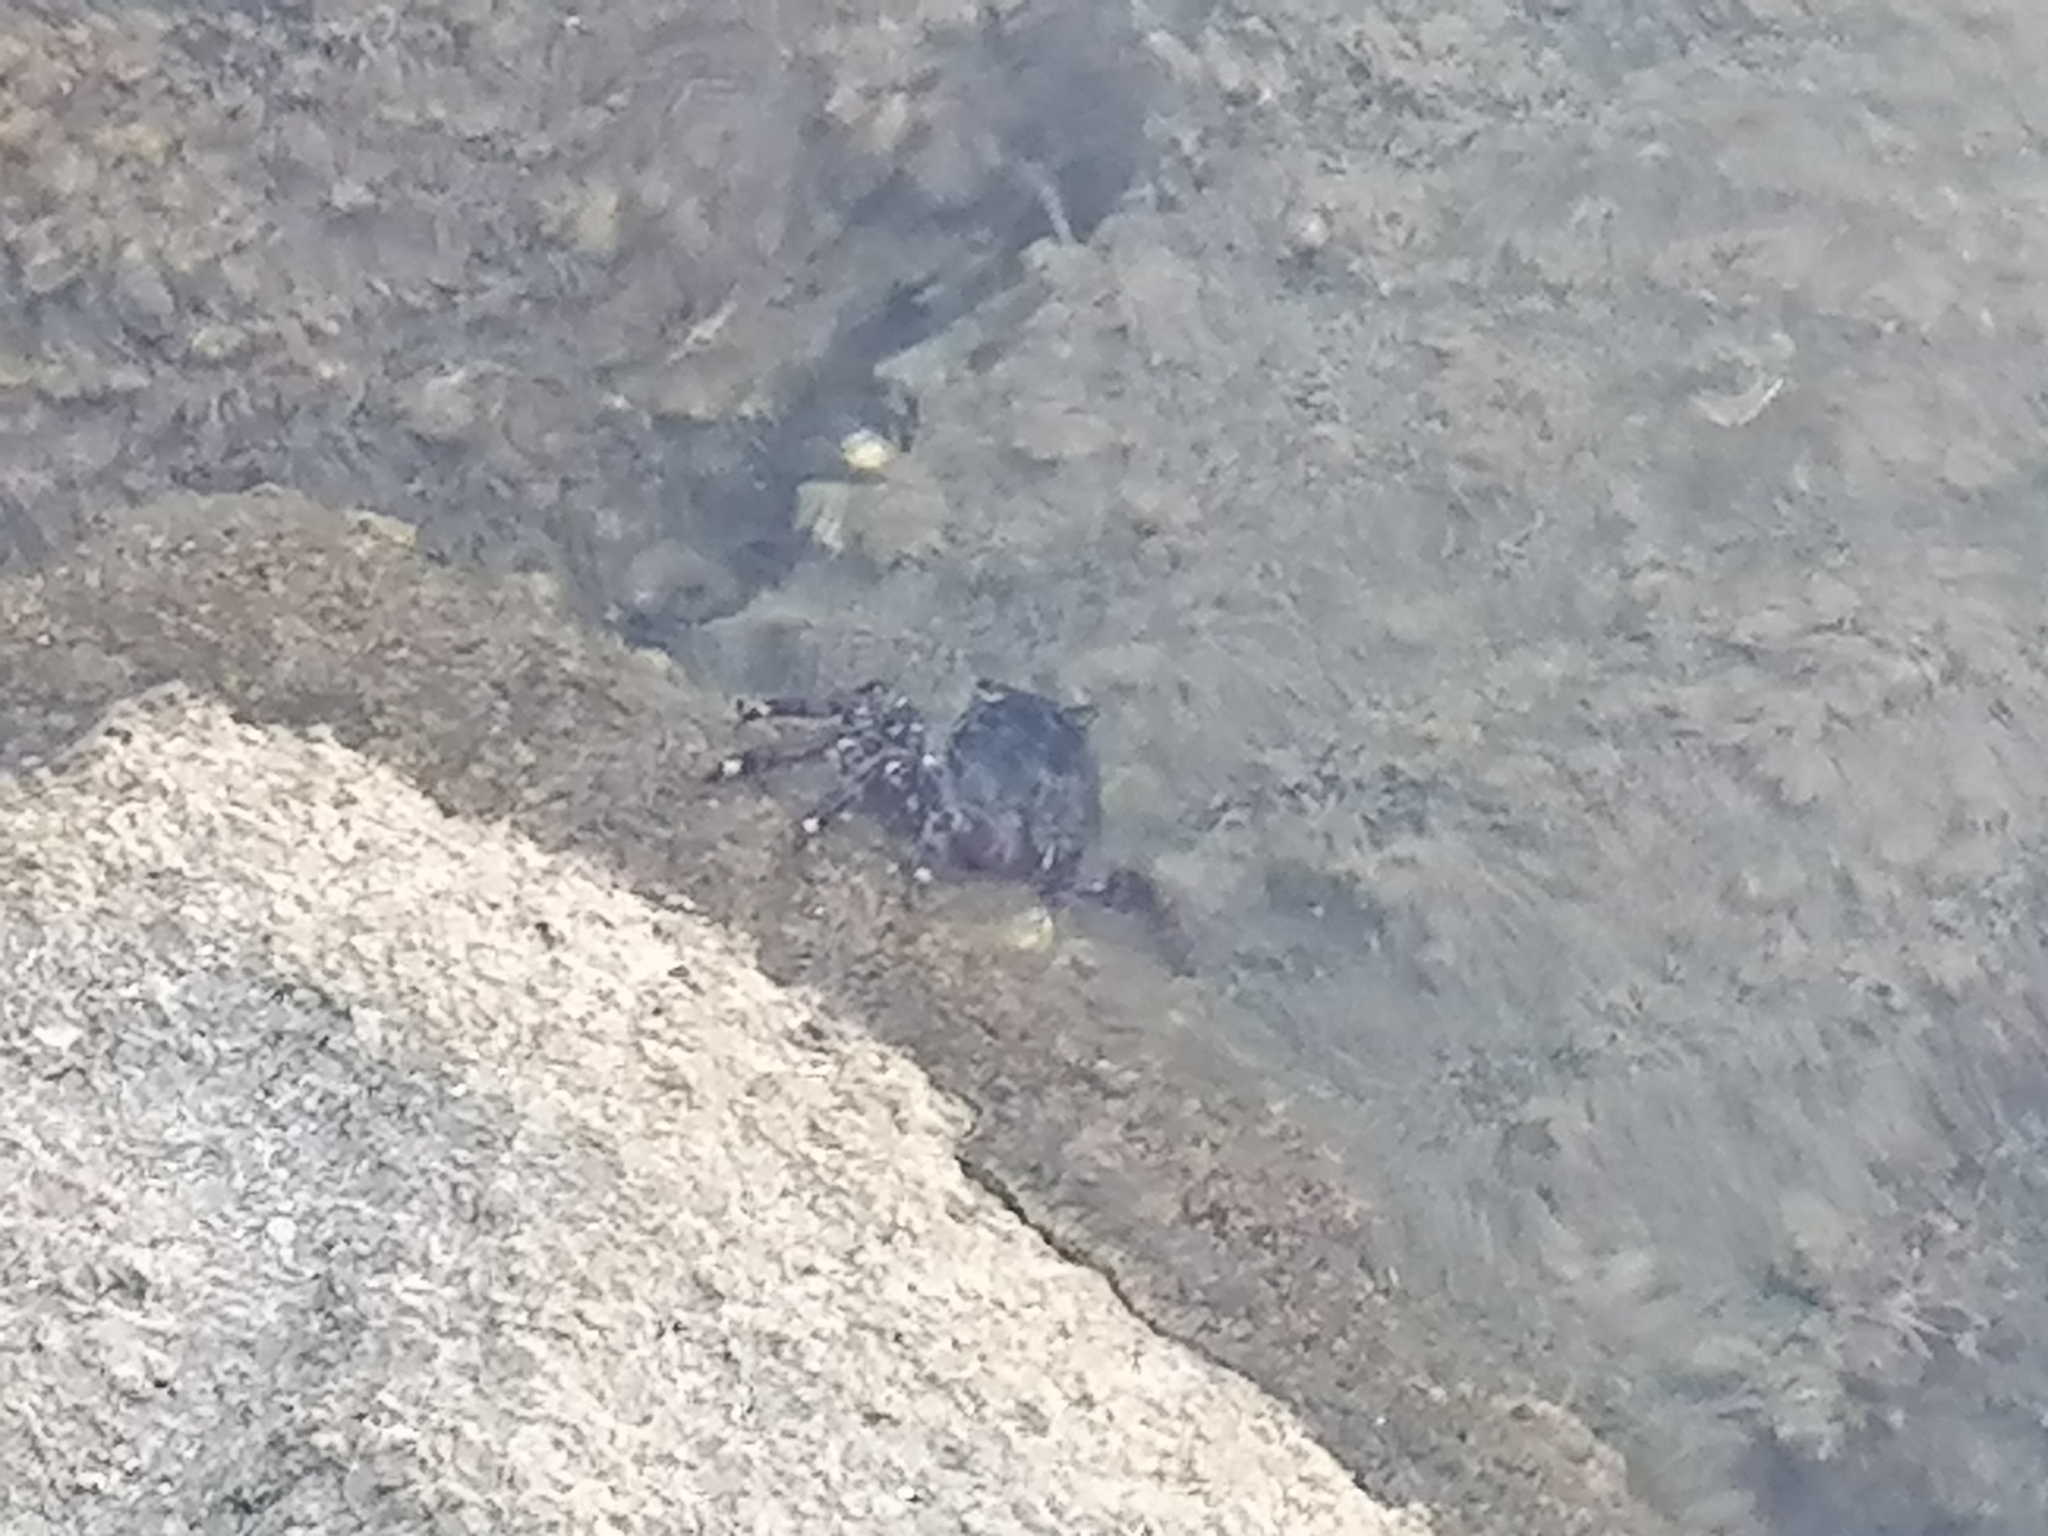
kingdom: Animalia
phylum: Arthropoda
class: Malacostraca
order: Decapoda
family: Grapsidae
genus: Pachygrapsus
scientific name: Pachygrapsus marmoratus
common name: Marbled rock crab
